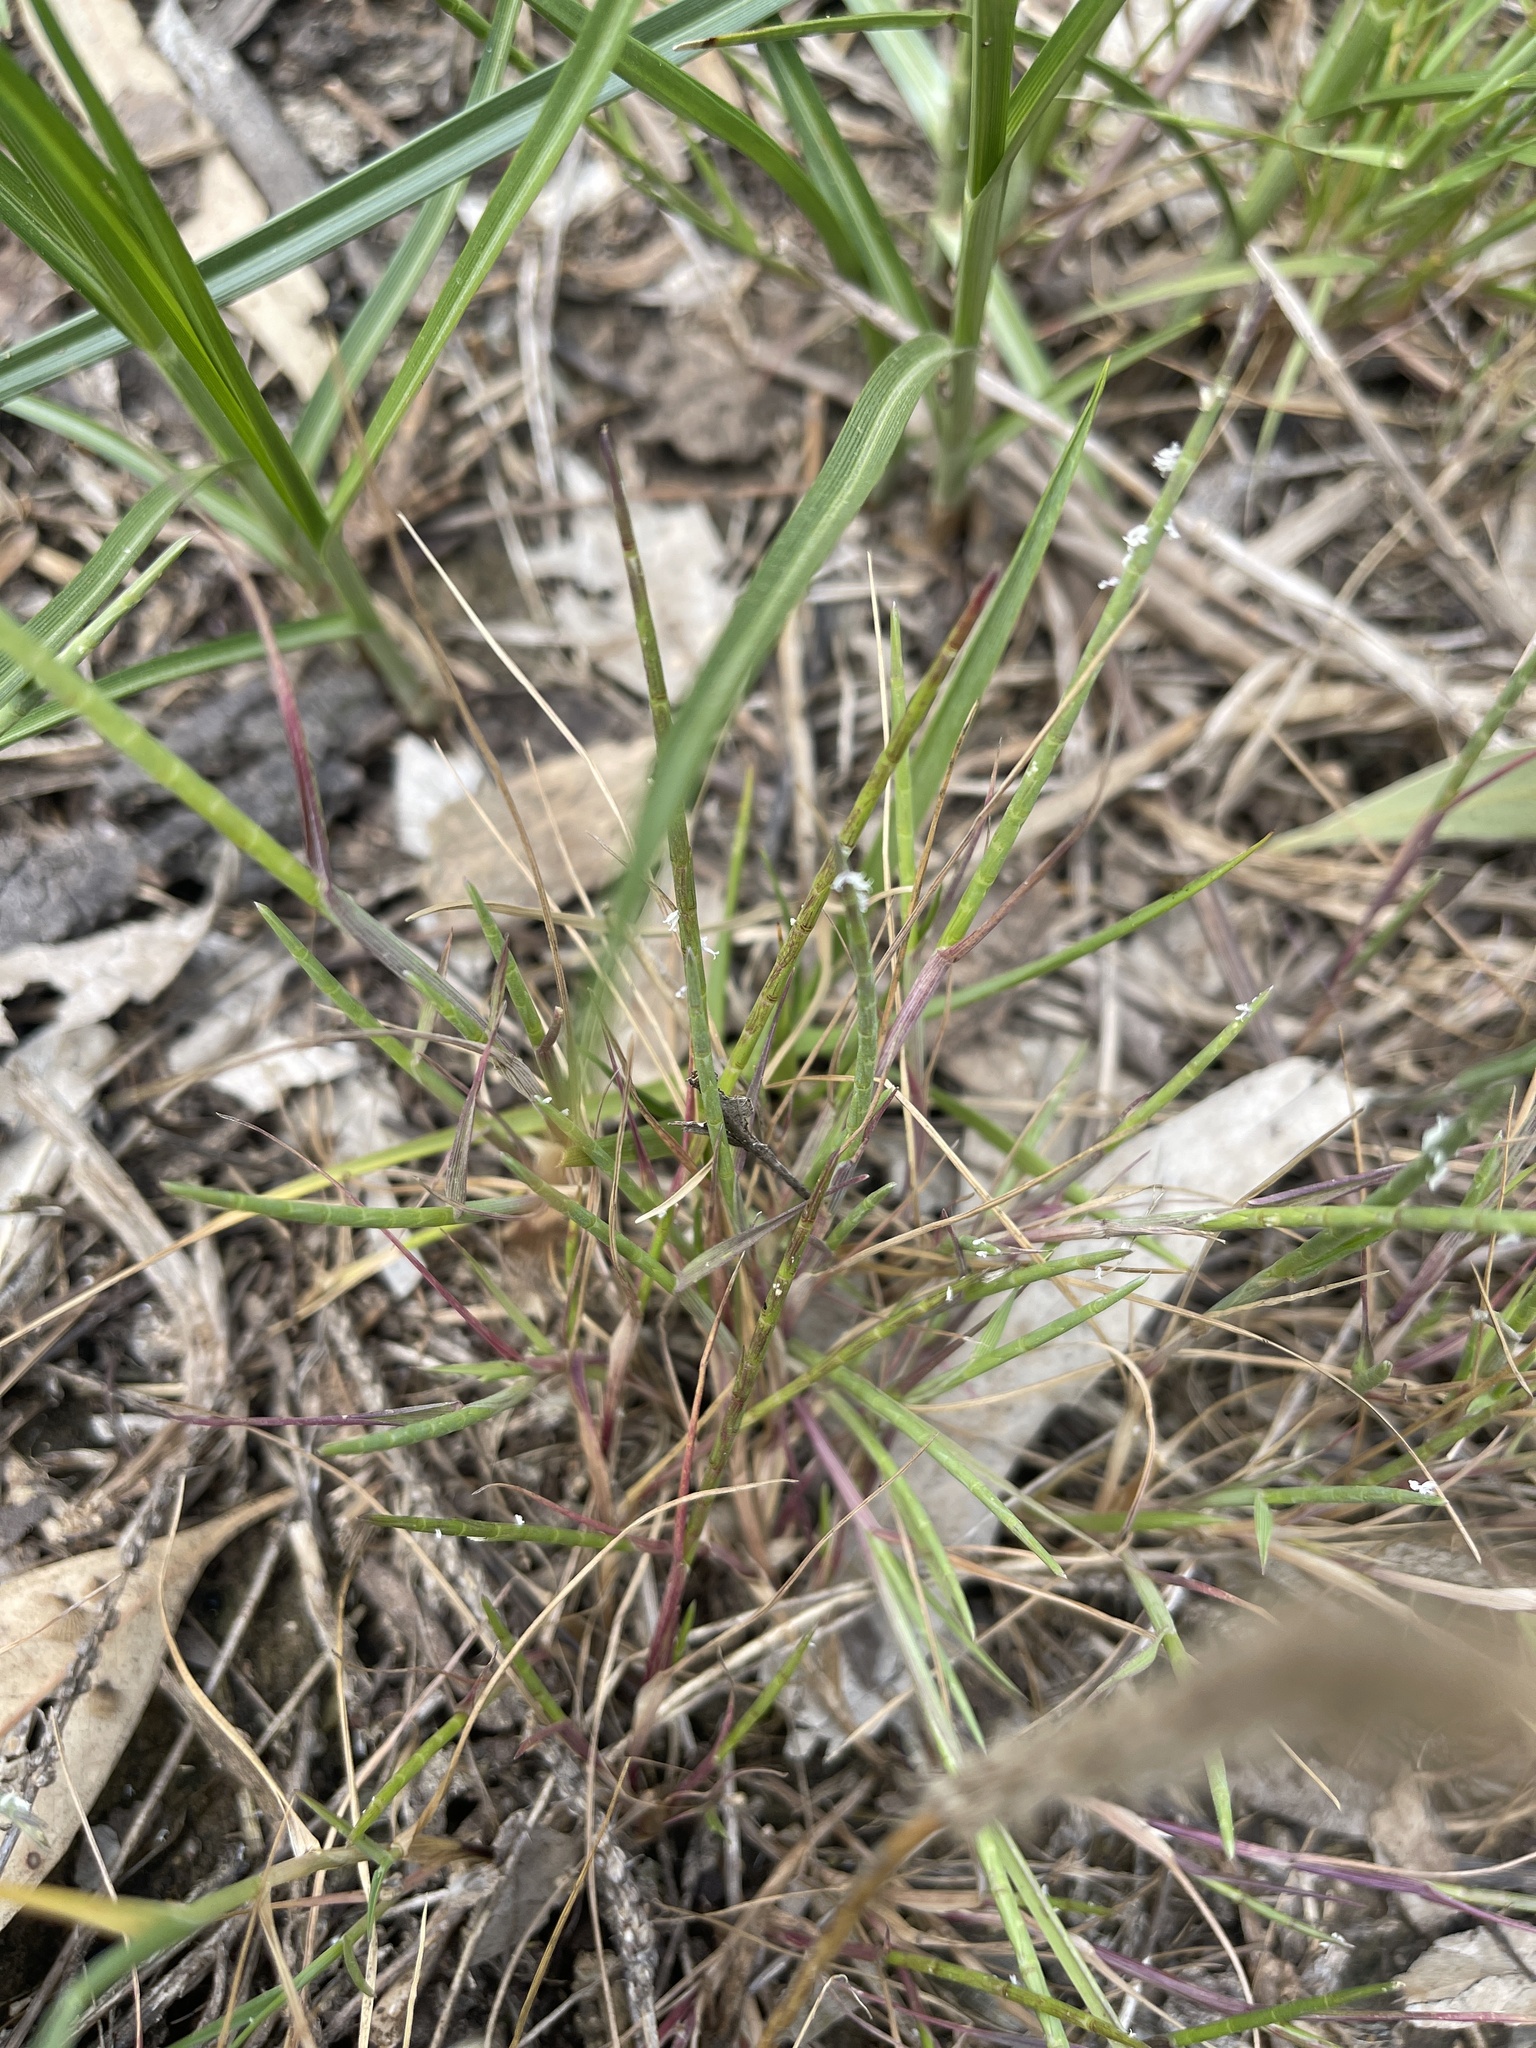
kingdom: Plantae
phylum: Tracheophyta
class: Liliopsida
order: Poales
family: Poaceae
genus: Hemarthria
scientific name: Hemarthria uncinata
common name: Matgrass
